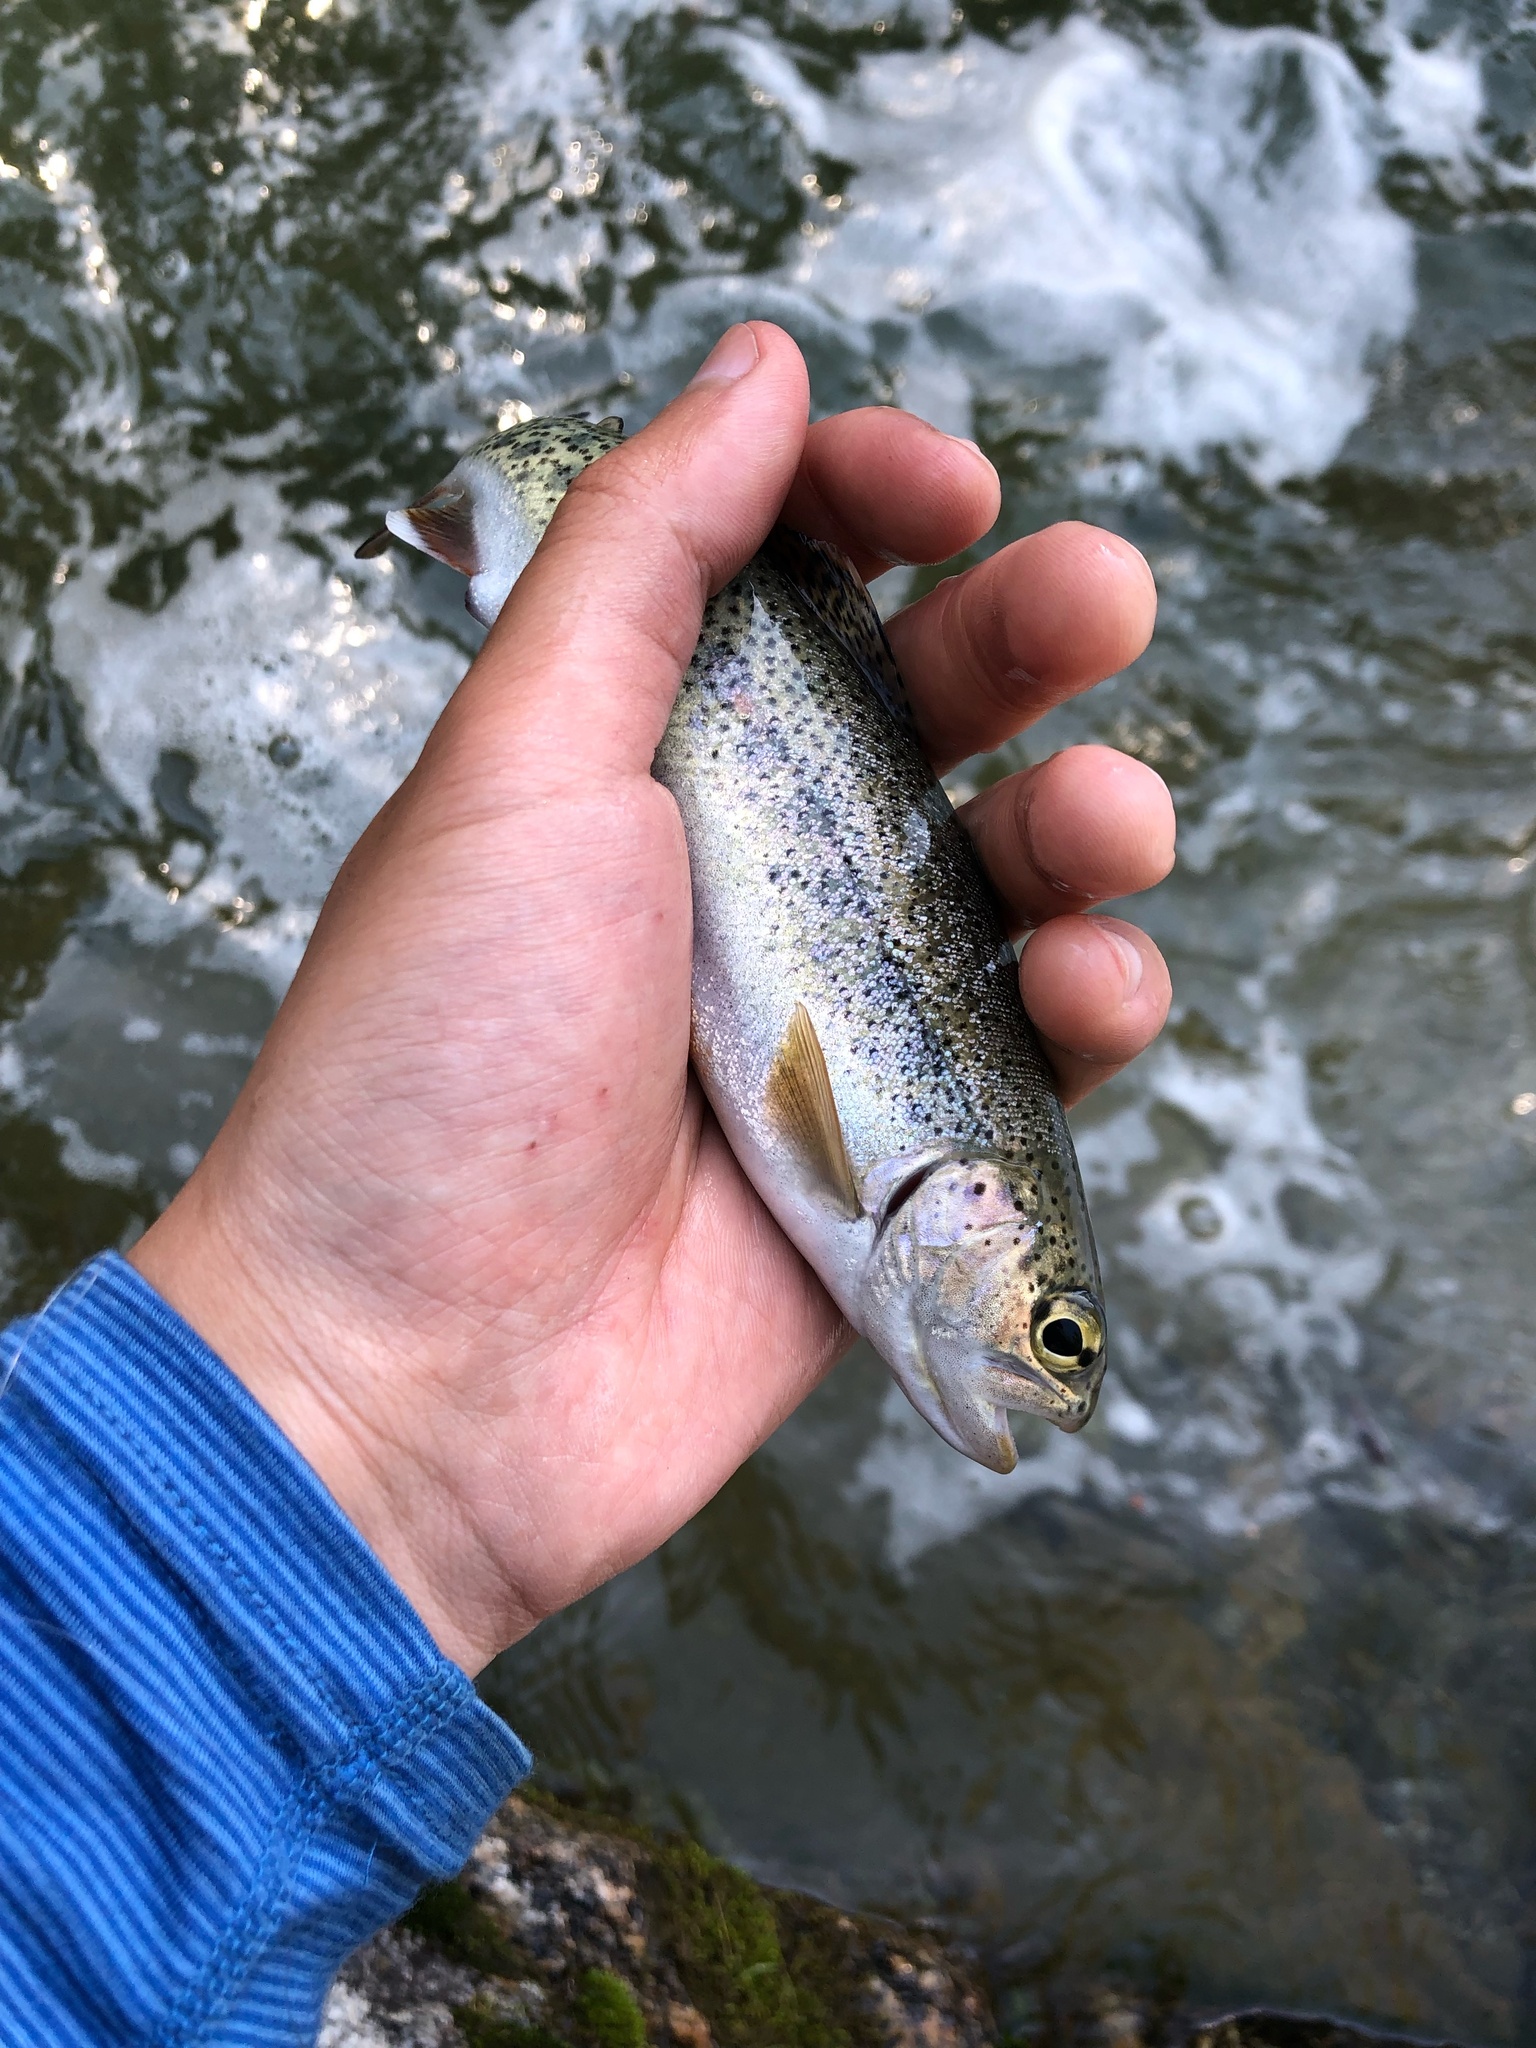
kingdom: Animalia
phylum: Chordata
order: Salmoniformes
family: Salmonidae
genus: Oncorhynchus
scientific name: Oncorhynchus mykiss
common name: Rainbow trout
